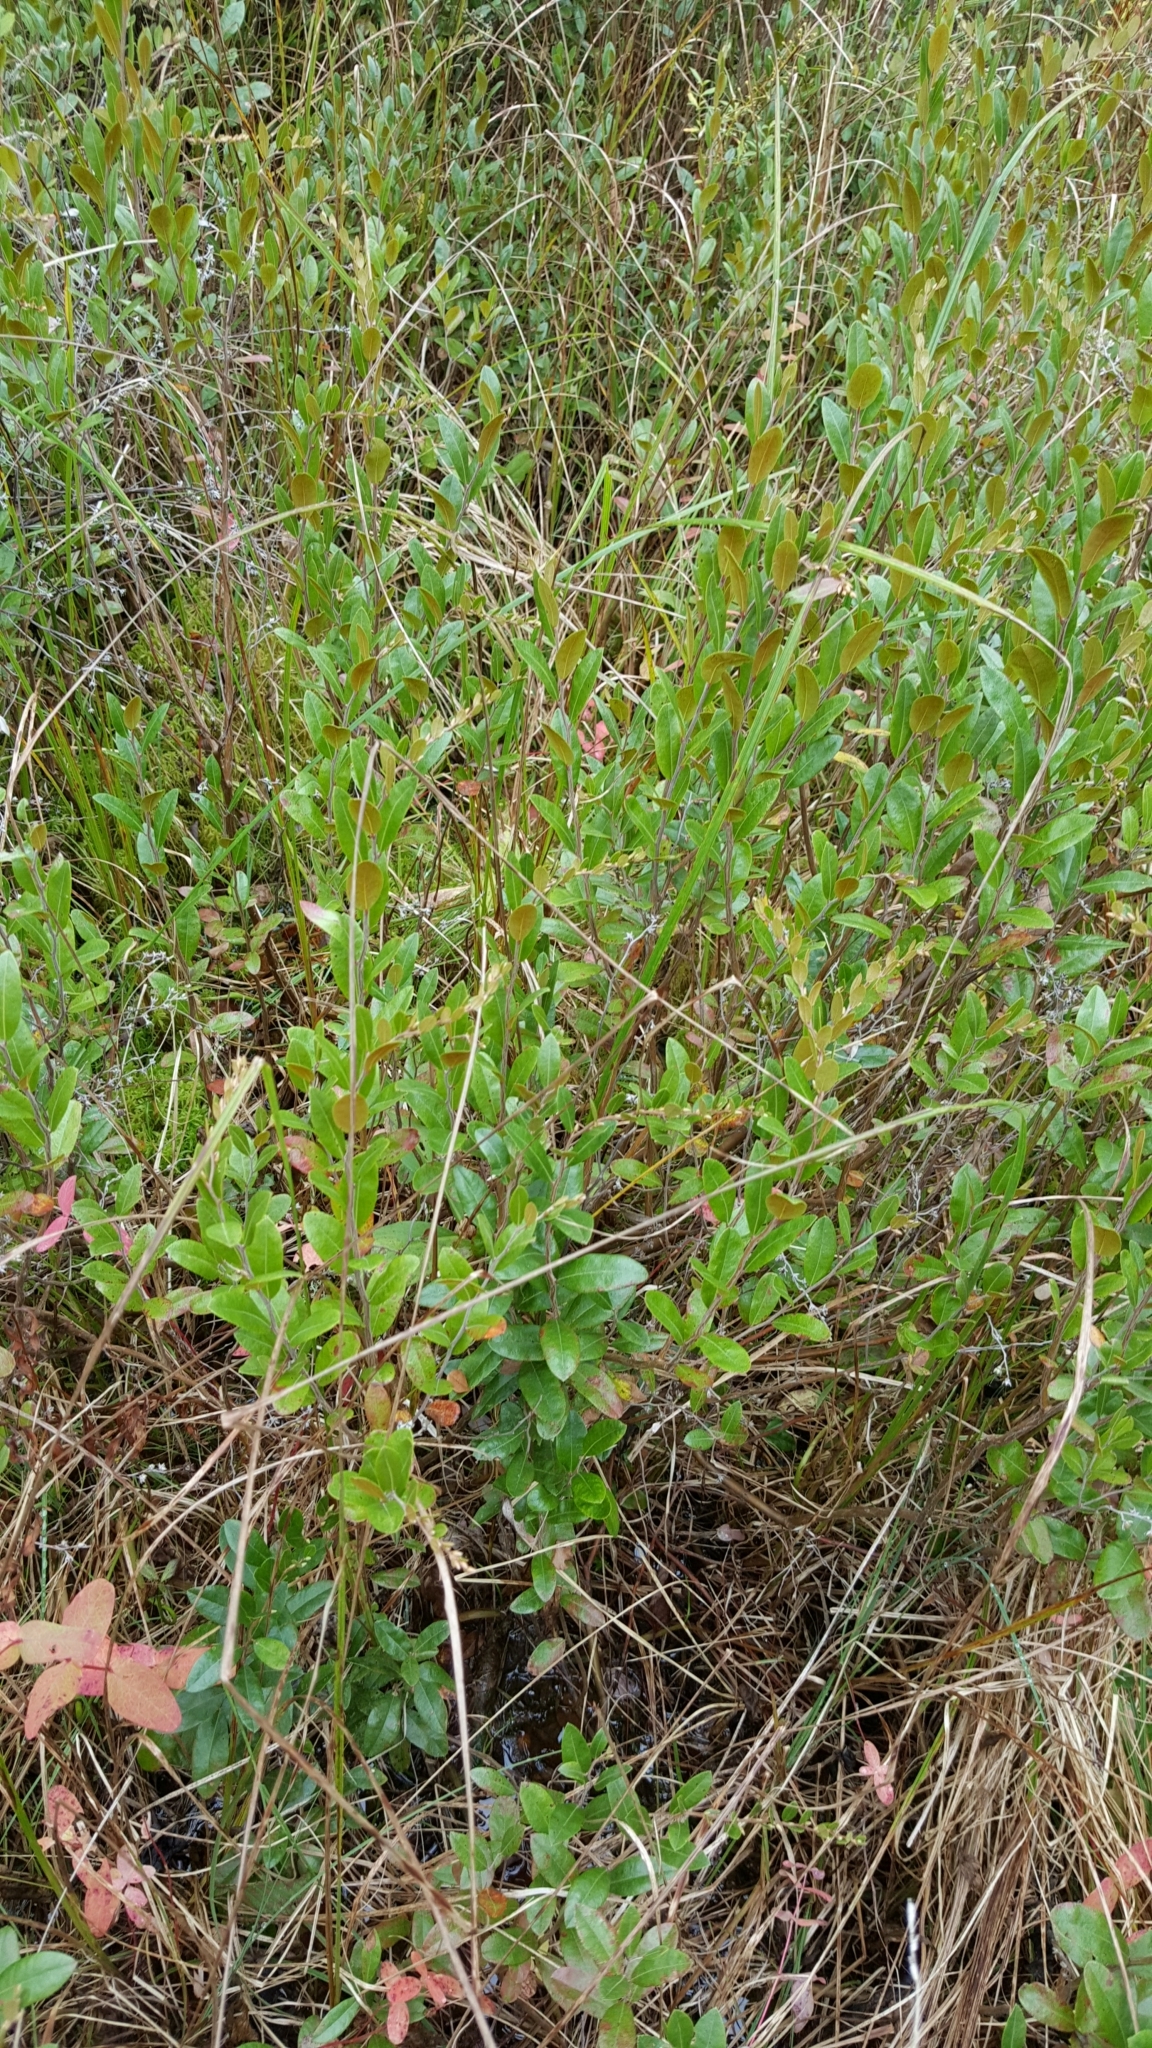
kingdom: Plantae
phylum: Tracheophyta
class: Magnoliopsida
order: Ericales
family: Ericaceae
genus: Chamaedaphne
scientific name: Chamaedaphne calyculata
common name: Leatherleaf
